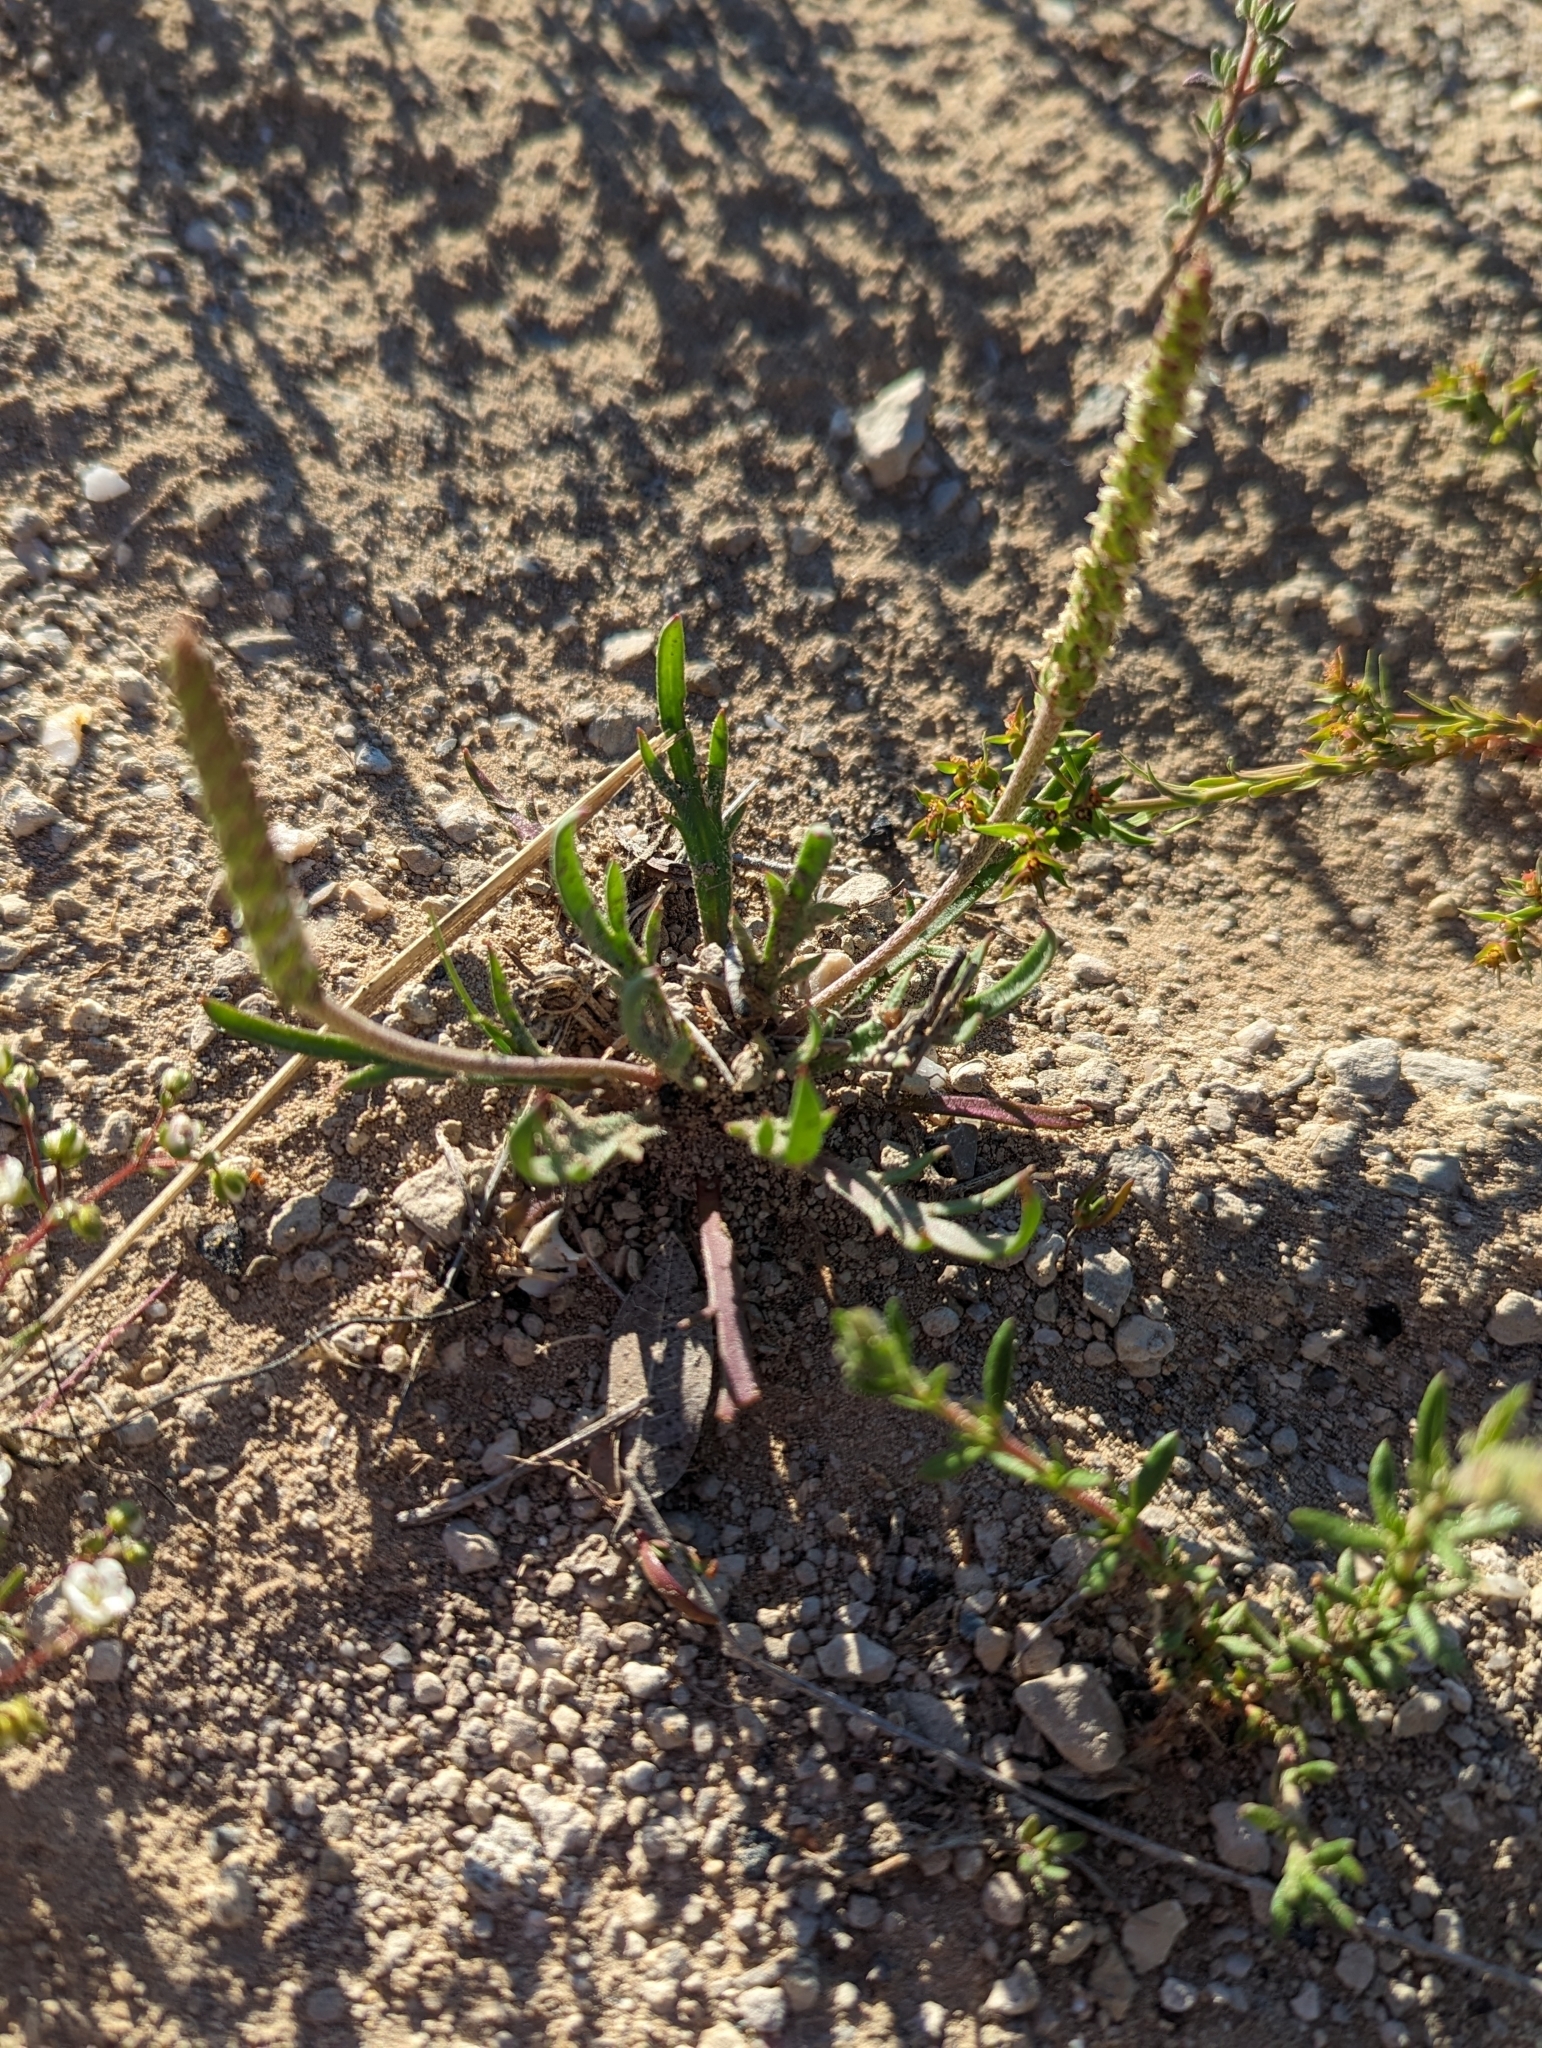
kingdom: Plantae
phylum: Tracheophyta
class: Magnoliopsida
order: Lamiales
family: Plantaginaceae
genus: Plantago
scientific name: Plantago coronopus
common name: Buck's-horn plantain
